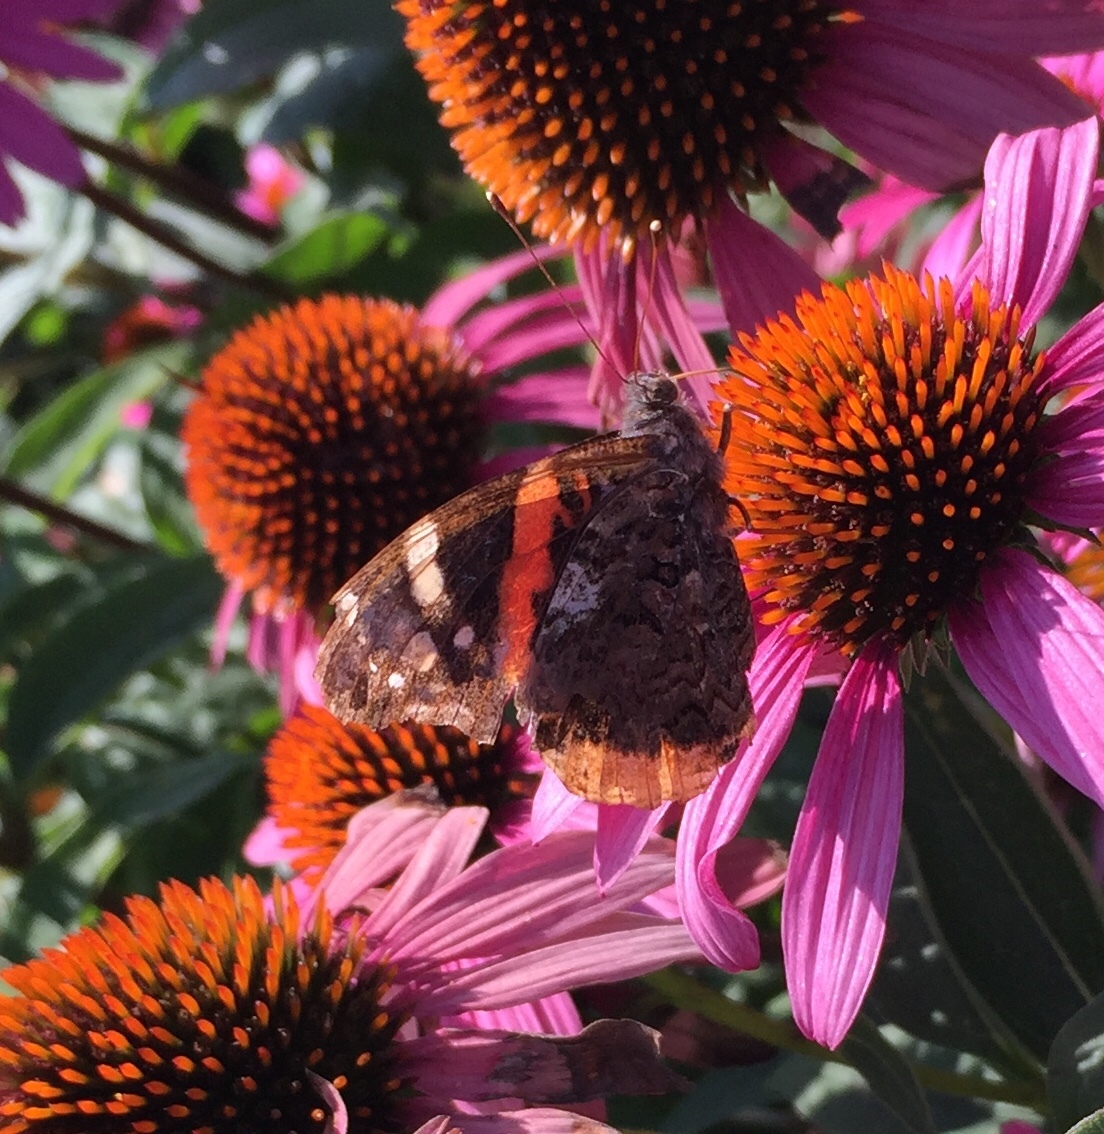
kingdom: Animalia
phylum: Arthropoda
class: Insecta
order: Lepidoptera
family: Nymphalidae
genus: Vanessa
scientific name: Vanessa atalanta
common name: Red admiral
